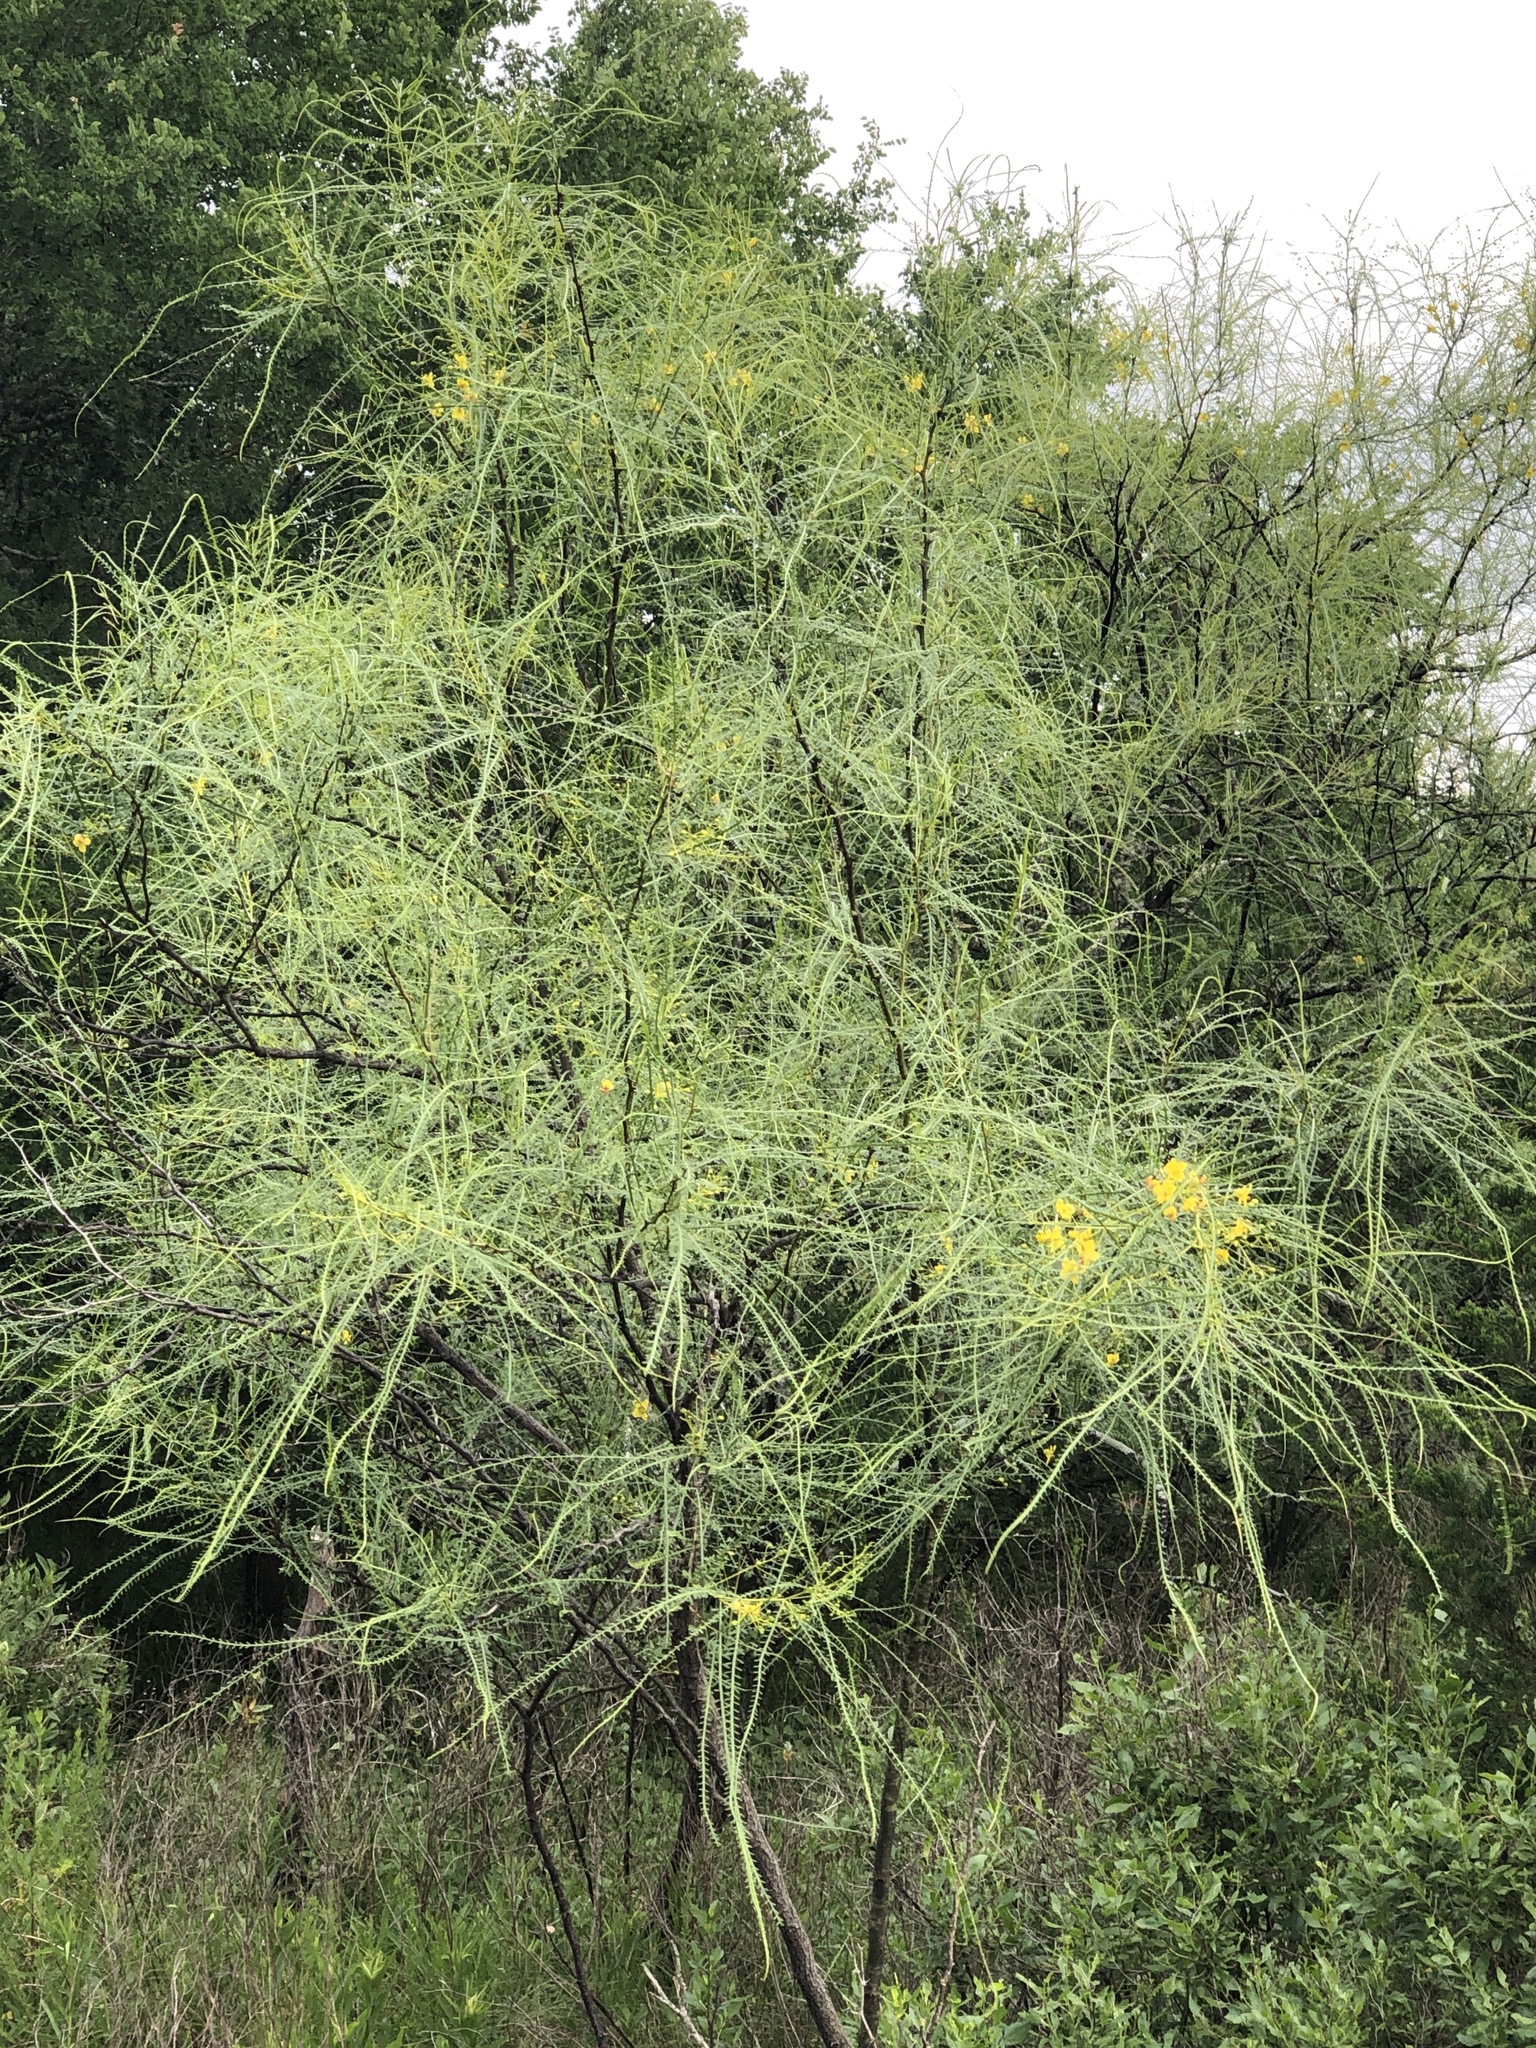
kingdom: Plantae
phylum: Tracheophyta
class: Magnoliopsida
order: Fabales
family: Fabaceae
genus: Parkinsonia
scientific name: Parkinsonia aculeata
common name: Jerusalem thorn
